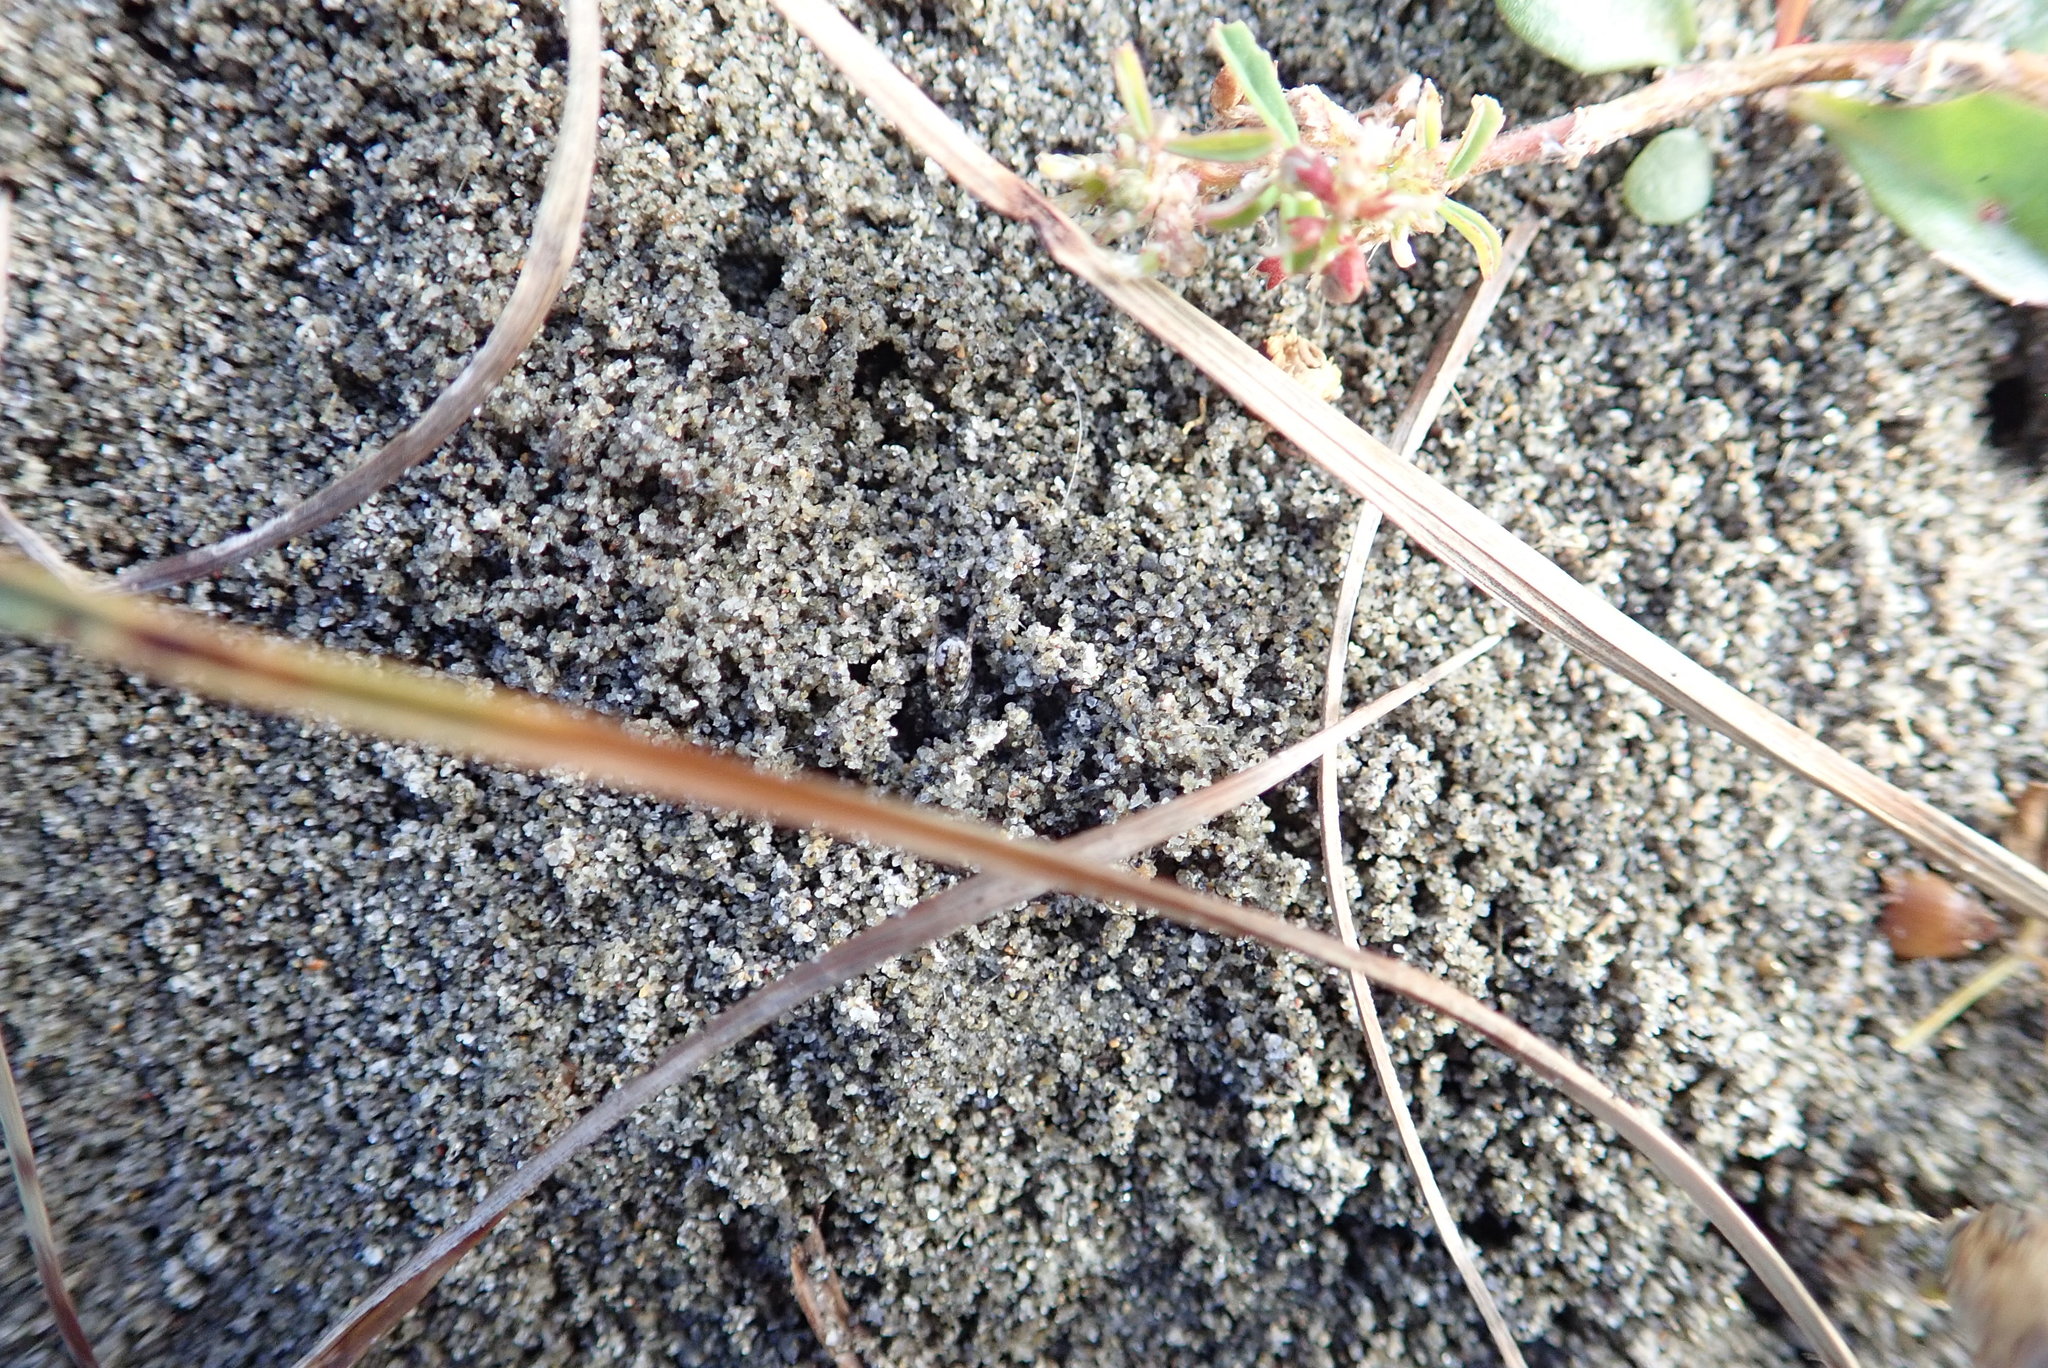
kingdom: Animalia
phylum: Arthropoda
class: Arachnida
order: Araneae
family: Lycosidae
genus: Anoteropsis
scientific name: Anoteropsis litoralis
